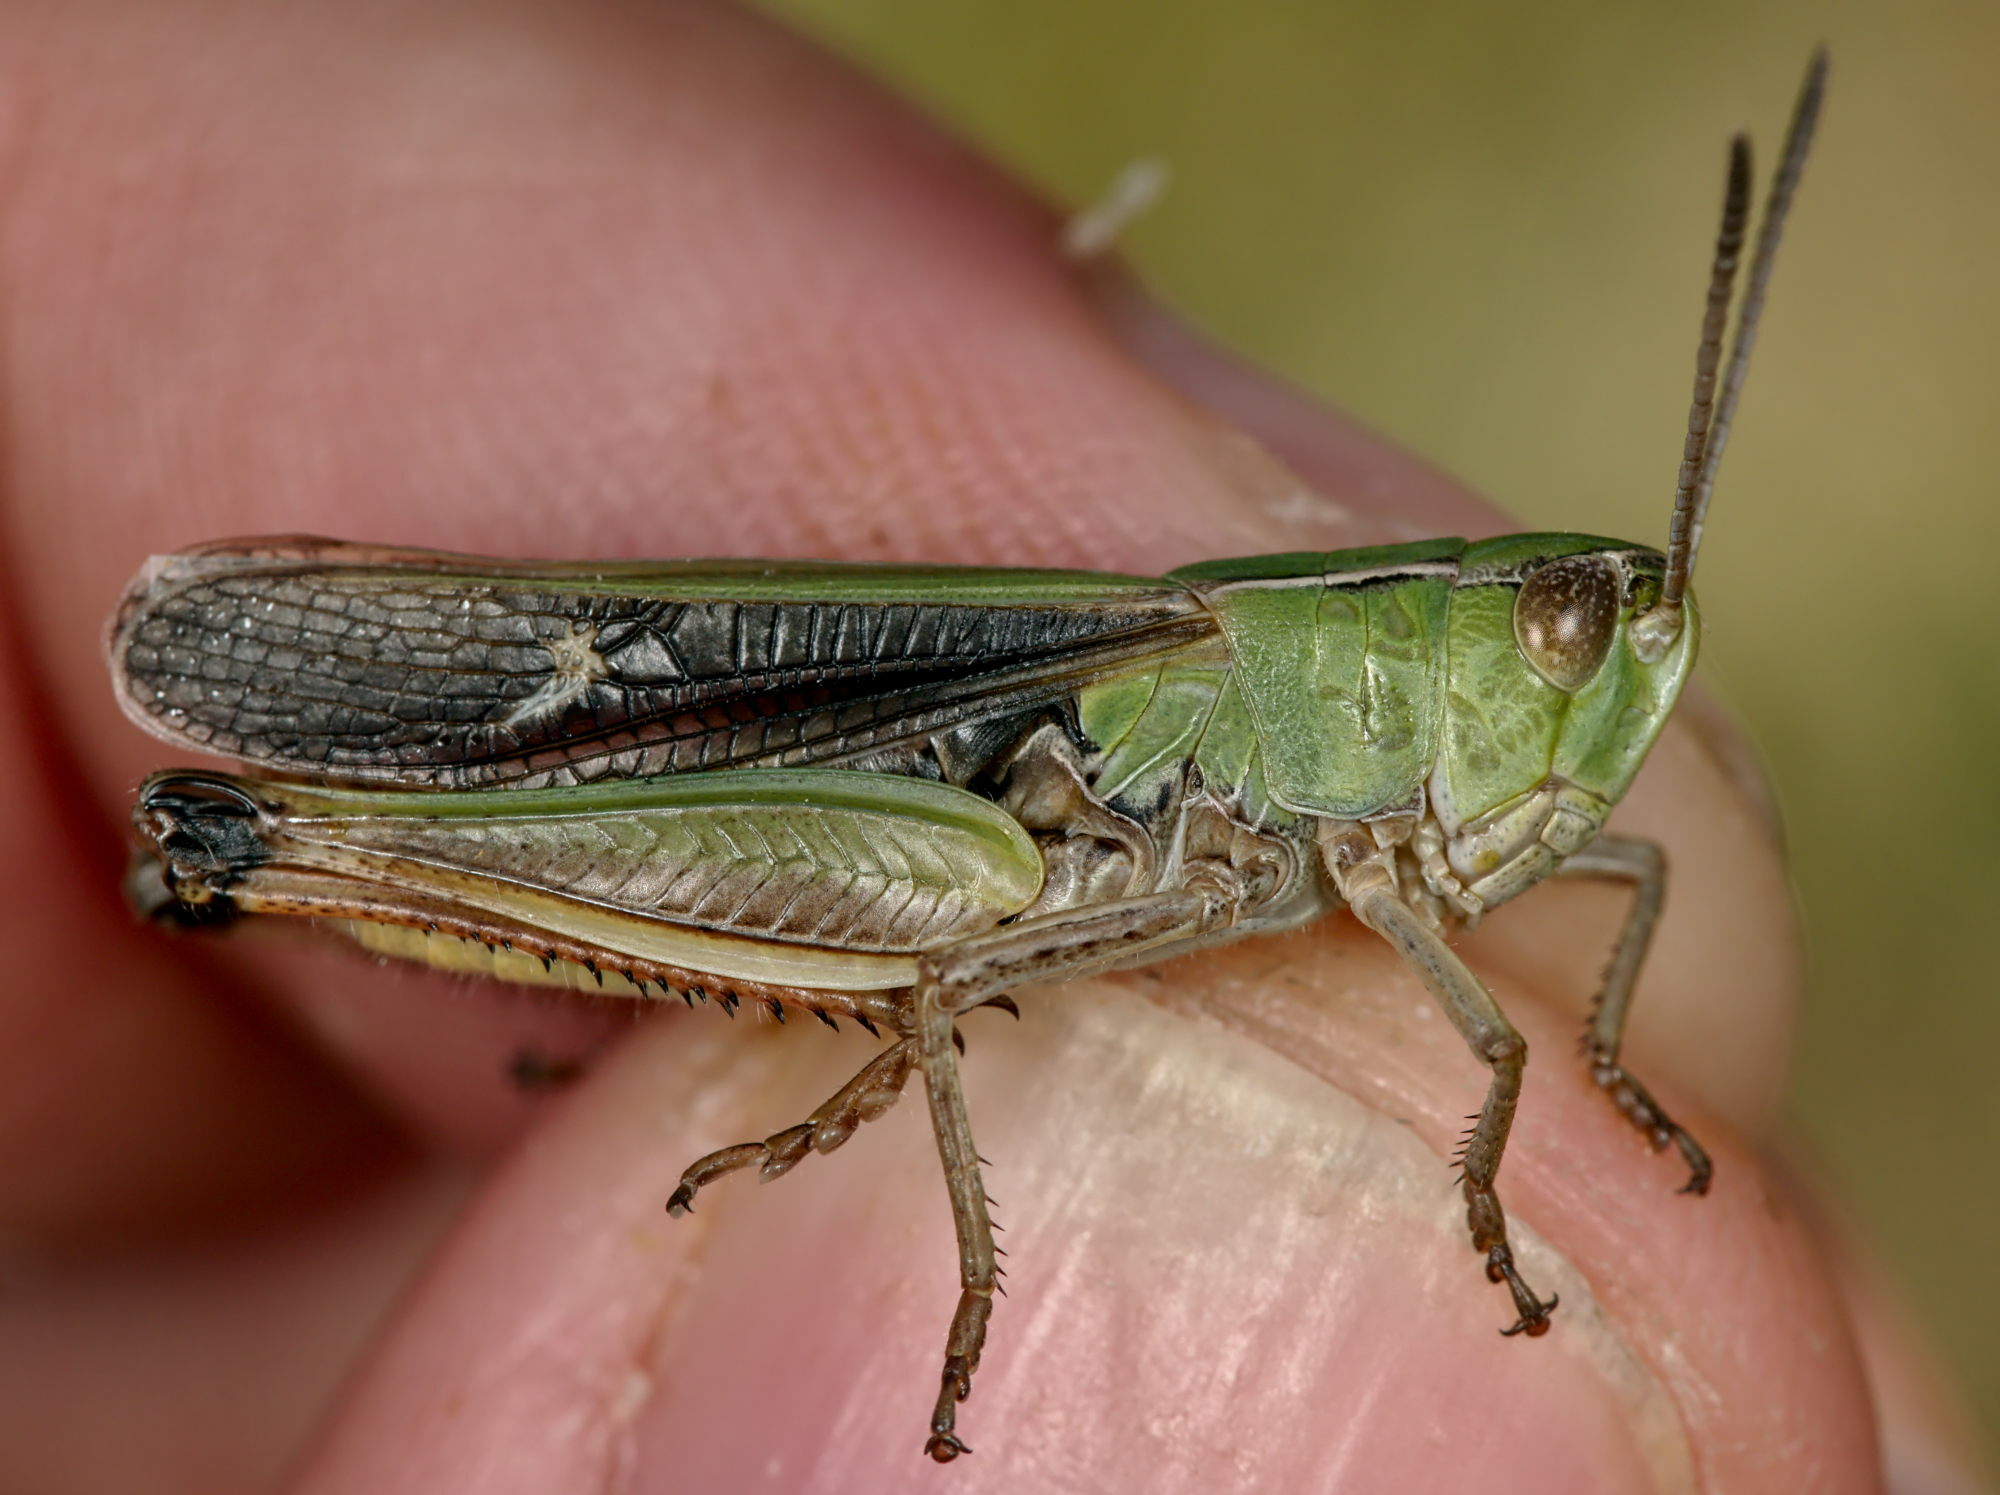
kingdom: Animalia
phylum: Arthropoda
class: Insecta
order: Orthoptera
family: Acrididae
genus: Stenobothrus
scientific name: Stenobothrus lineatus
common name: Stripe-winged grasshopper
